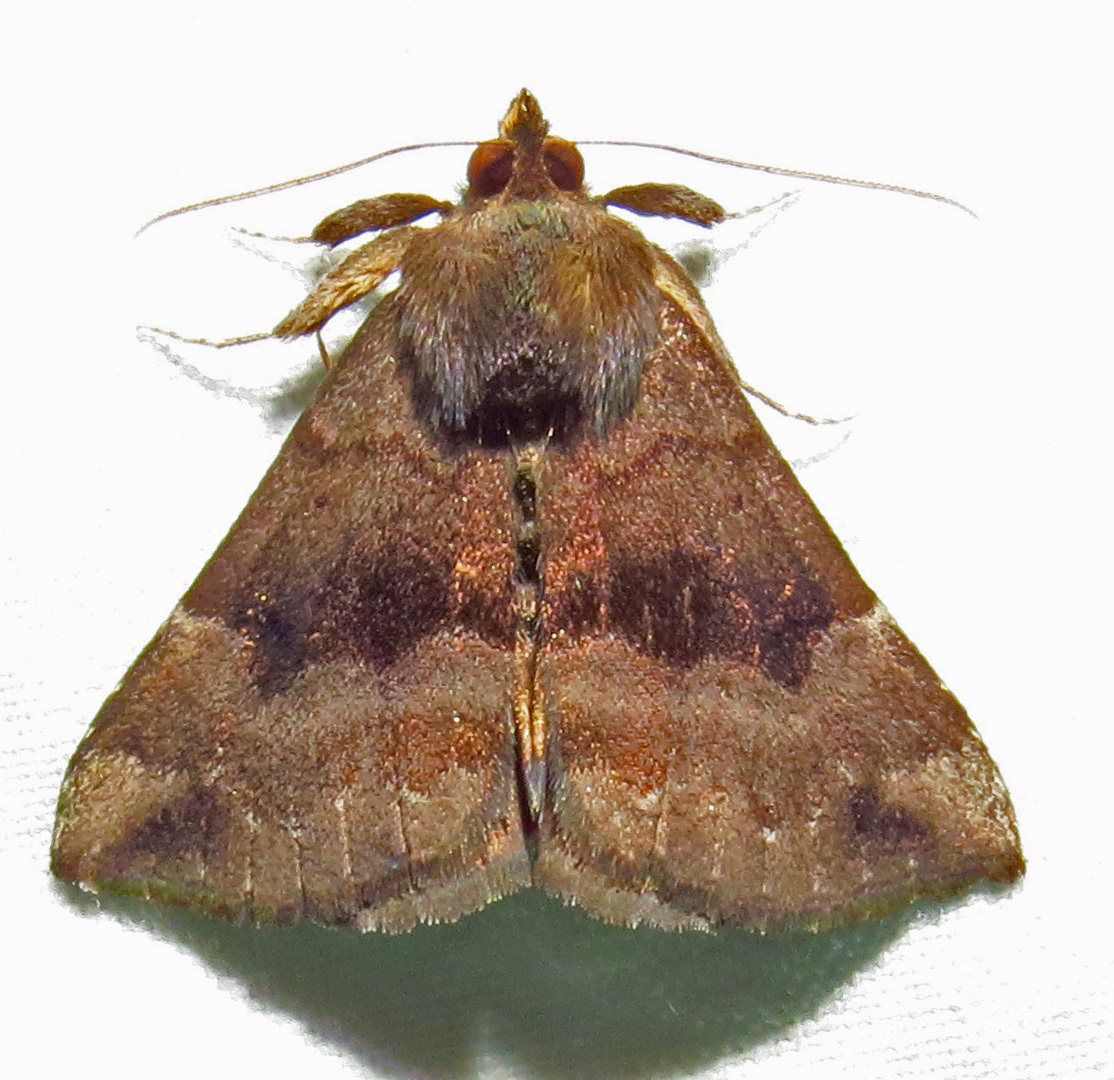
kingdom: Animalia
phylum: Arthropoda
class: Insecta
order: Lepidoptera
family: Erebidae
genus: Hypena
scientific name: Hypena madefactalis
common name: Gray-edged snout
